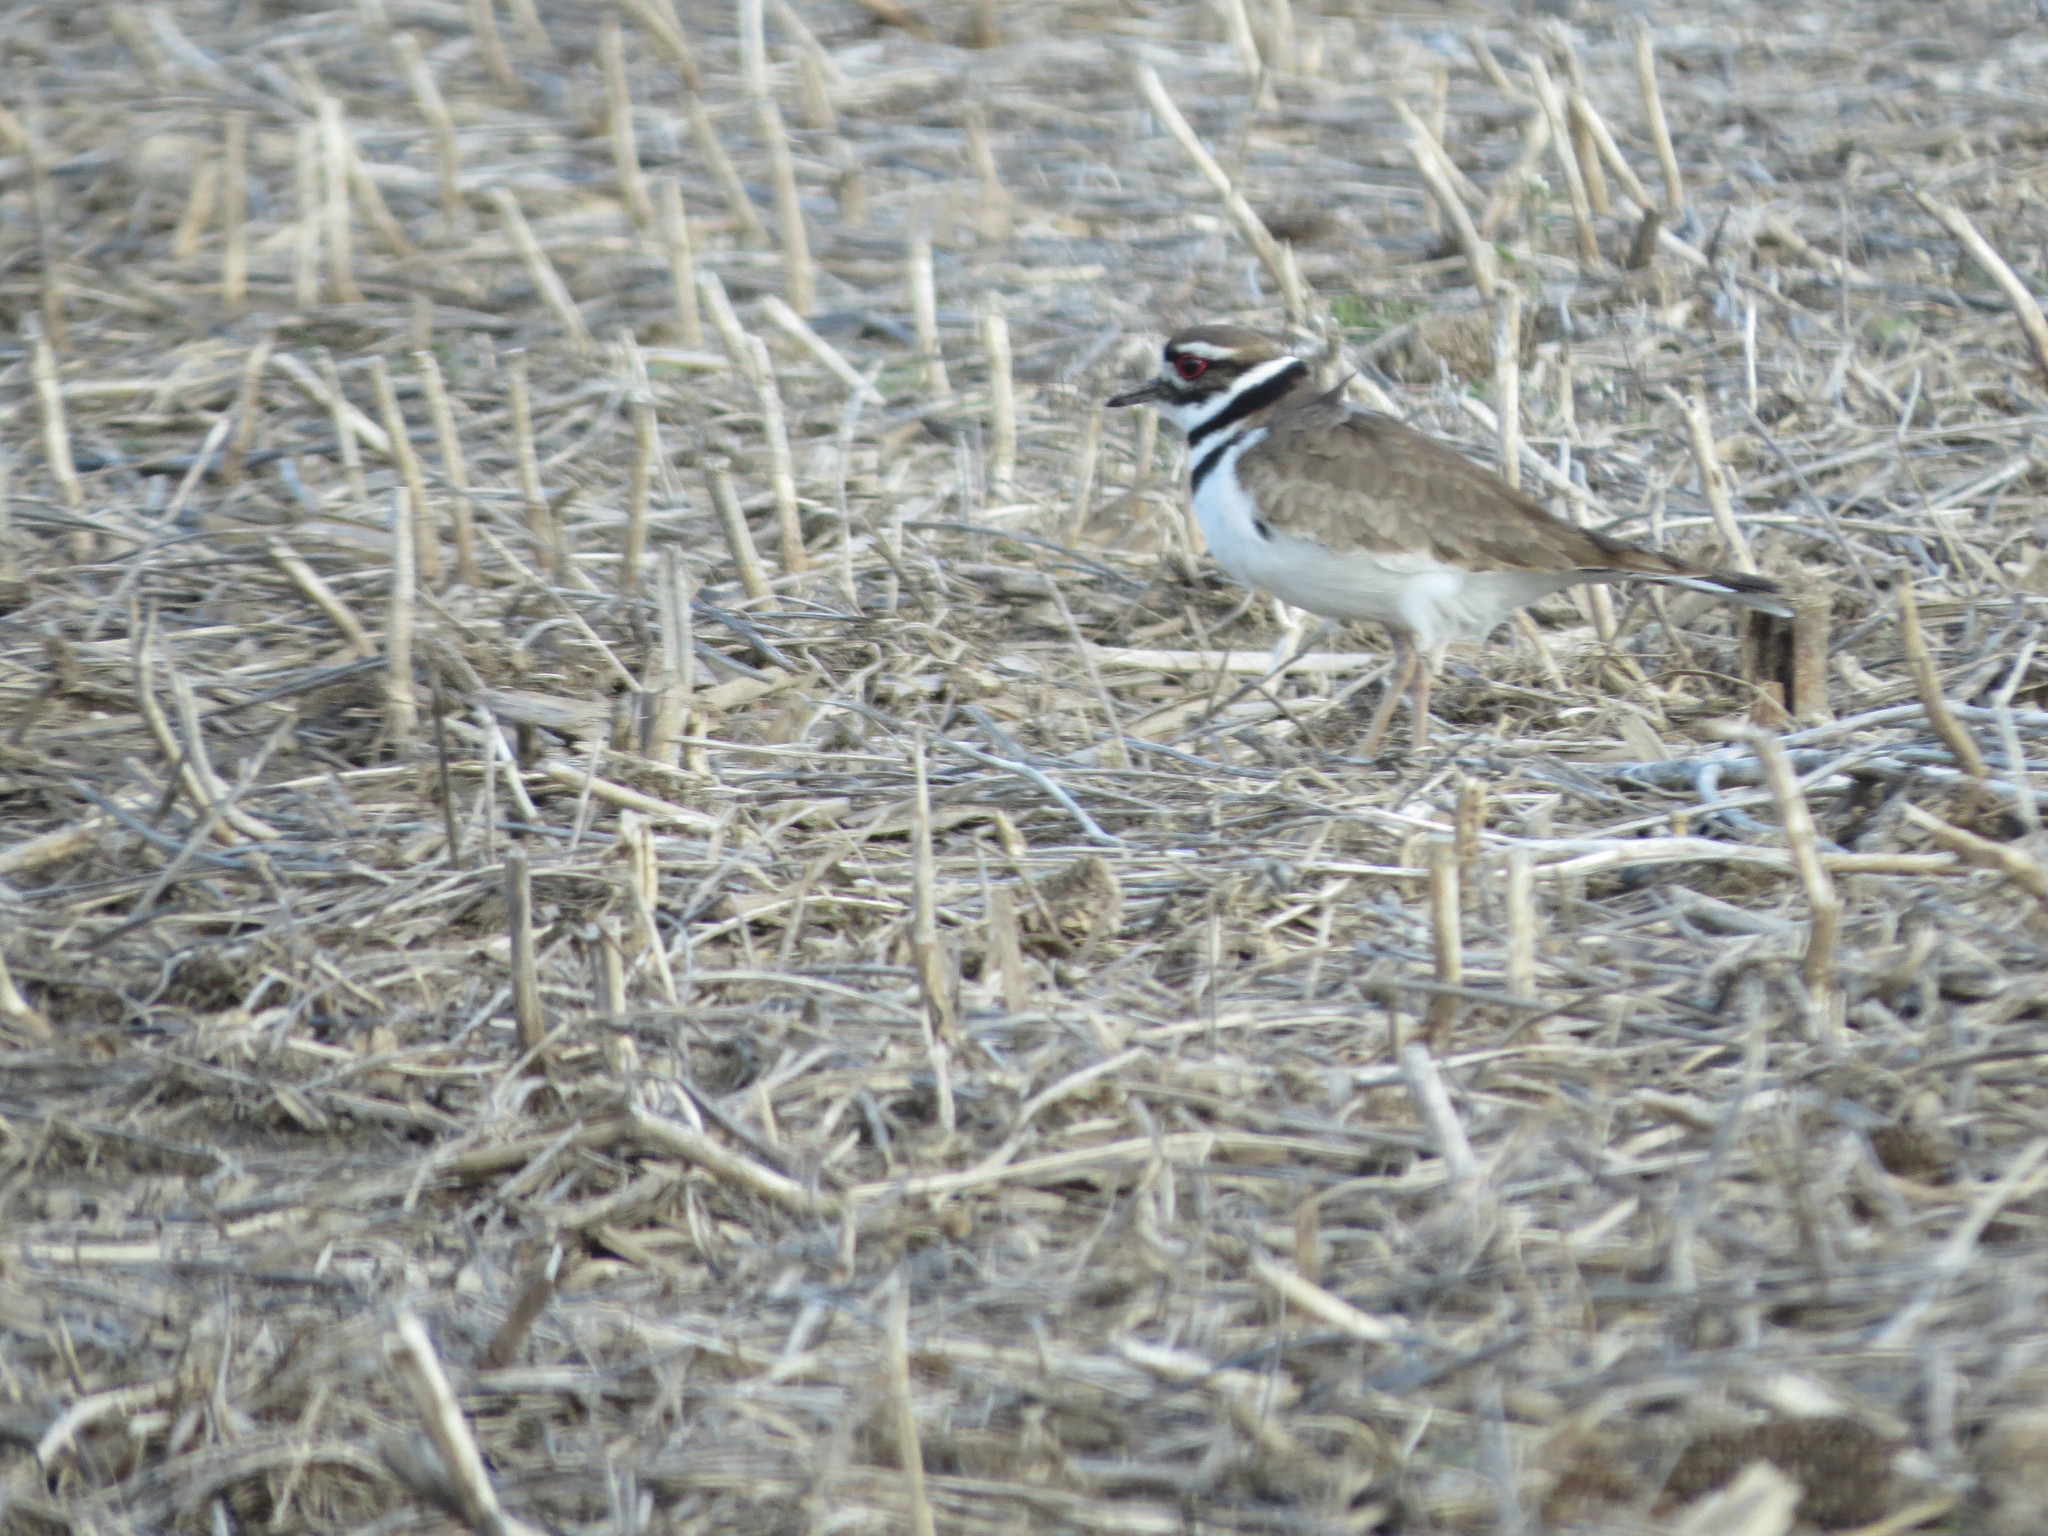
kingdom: Animalia
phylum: Chordata
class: Aves
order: Charadriiformes
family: Charadriidae
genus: Charadrius
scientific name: Charadrius vociferus
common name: Killdeer
